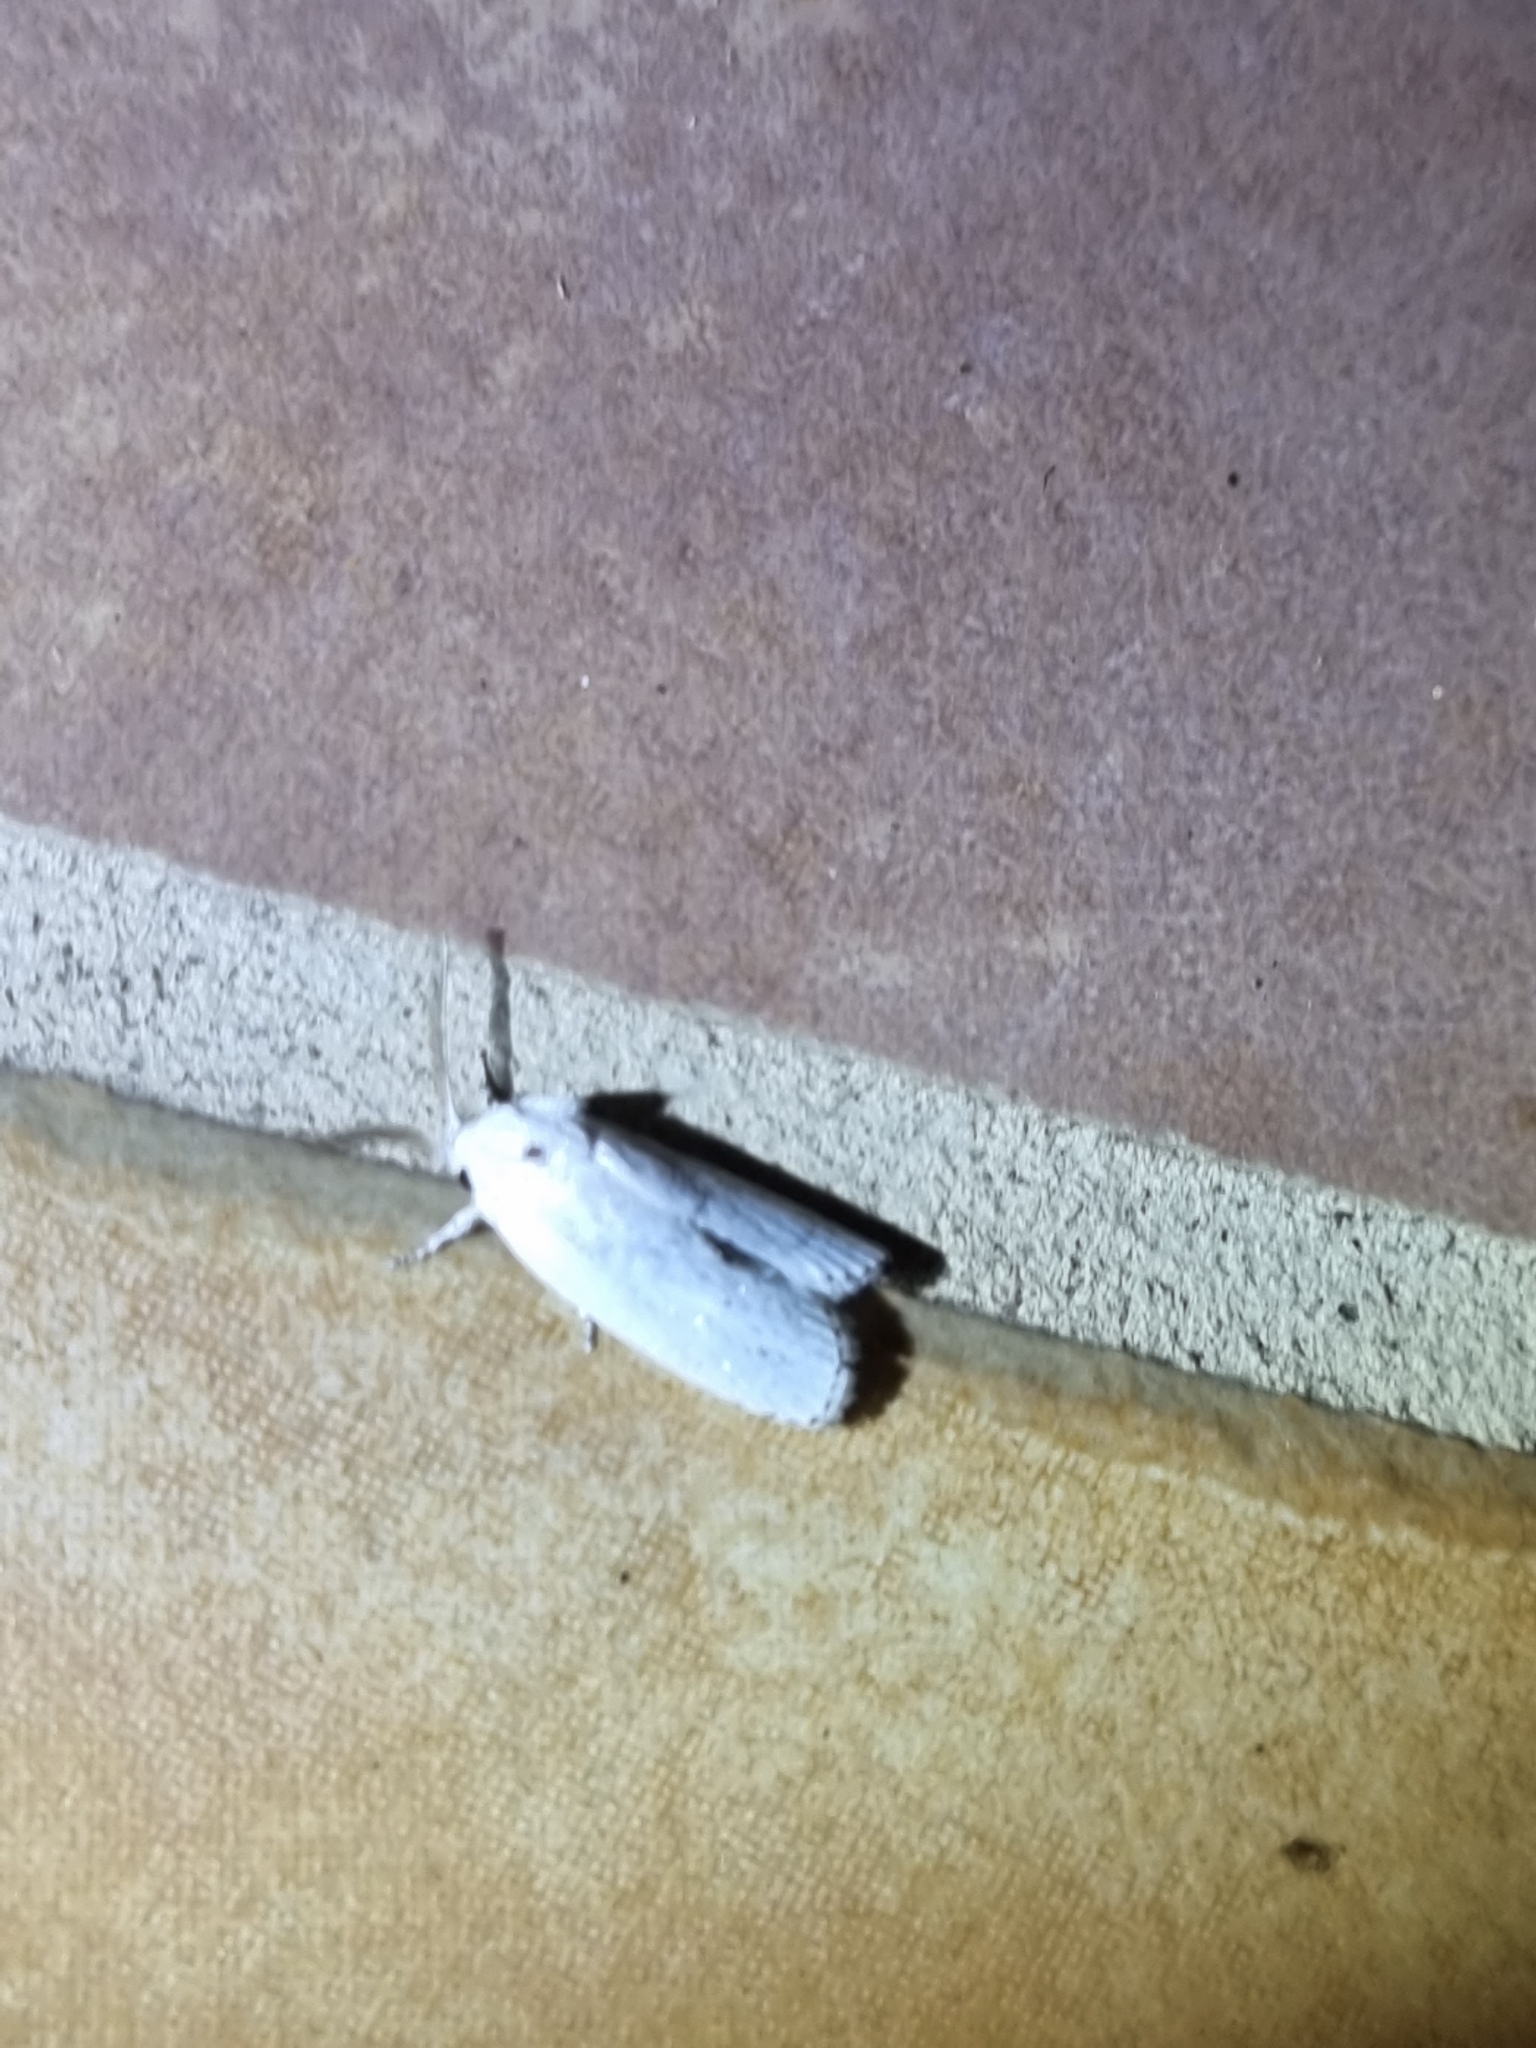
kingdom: Animalia
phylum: Arthropoda
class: Insecta
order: Lepidoptera
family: Xyloryctidae
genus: Cryptophasa
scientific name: Cryptophasa pultenae
